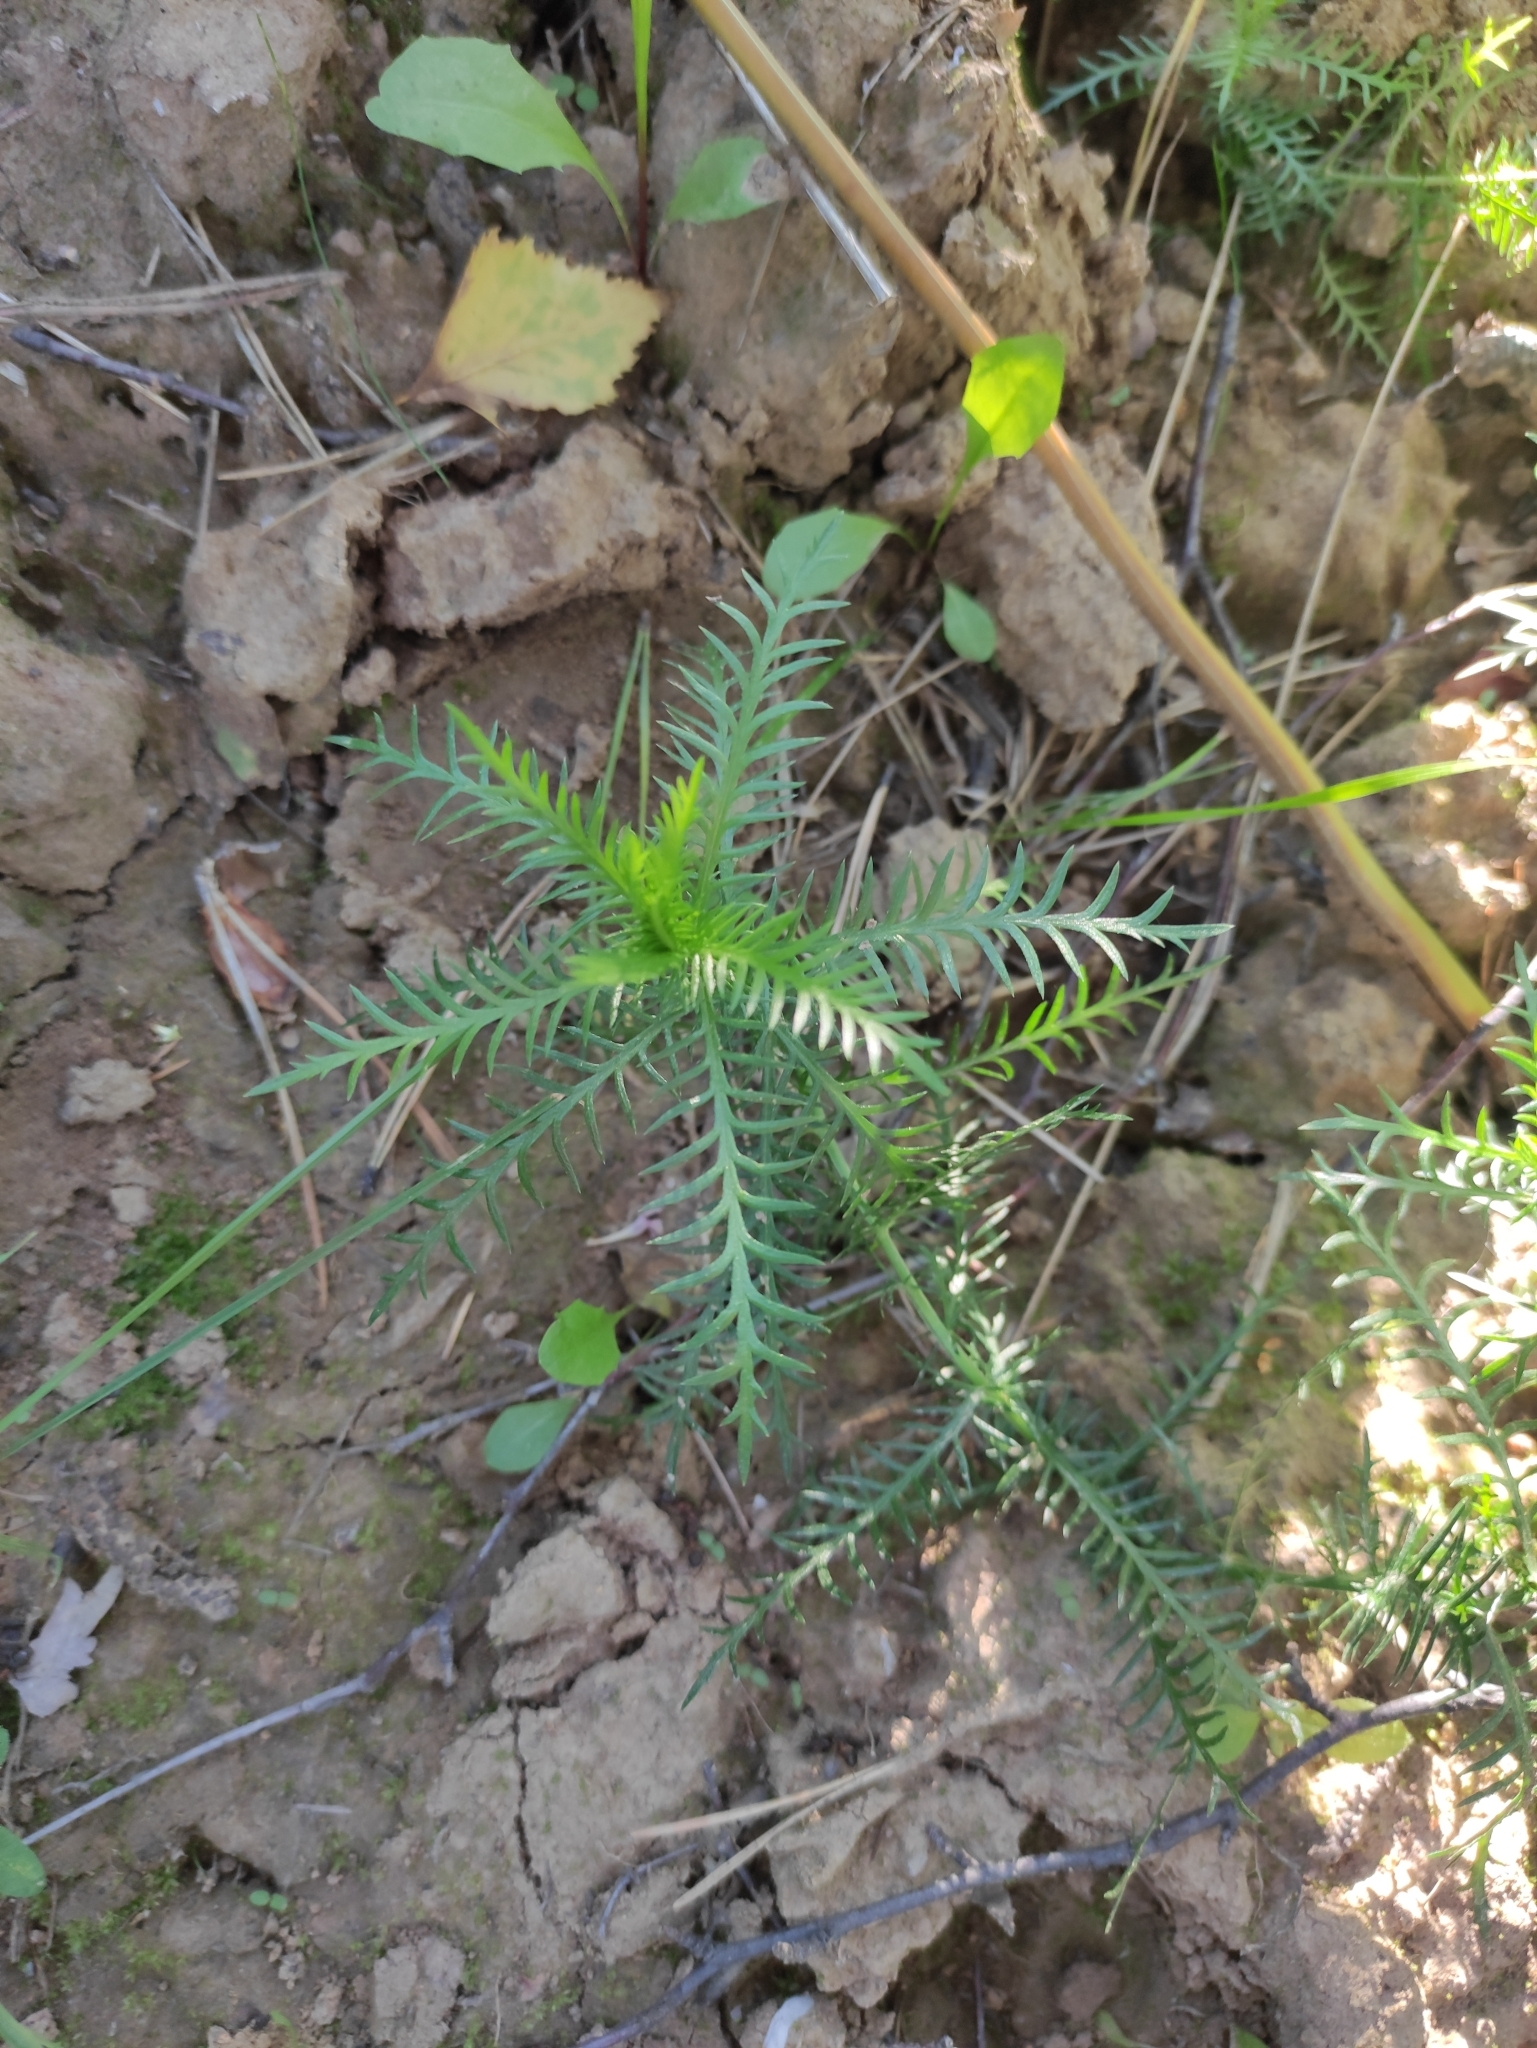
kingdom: Plantae
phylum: Tracheophyta
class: Magnoliopsida
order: Asterales
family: Asteraceae
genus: Achillea
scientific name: Achillea impatiens
